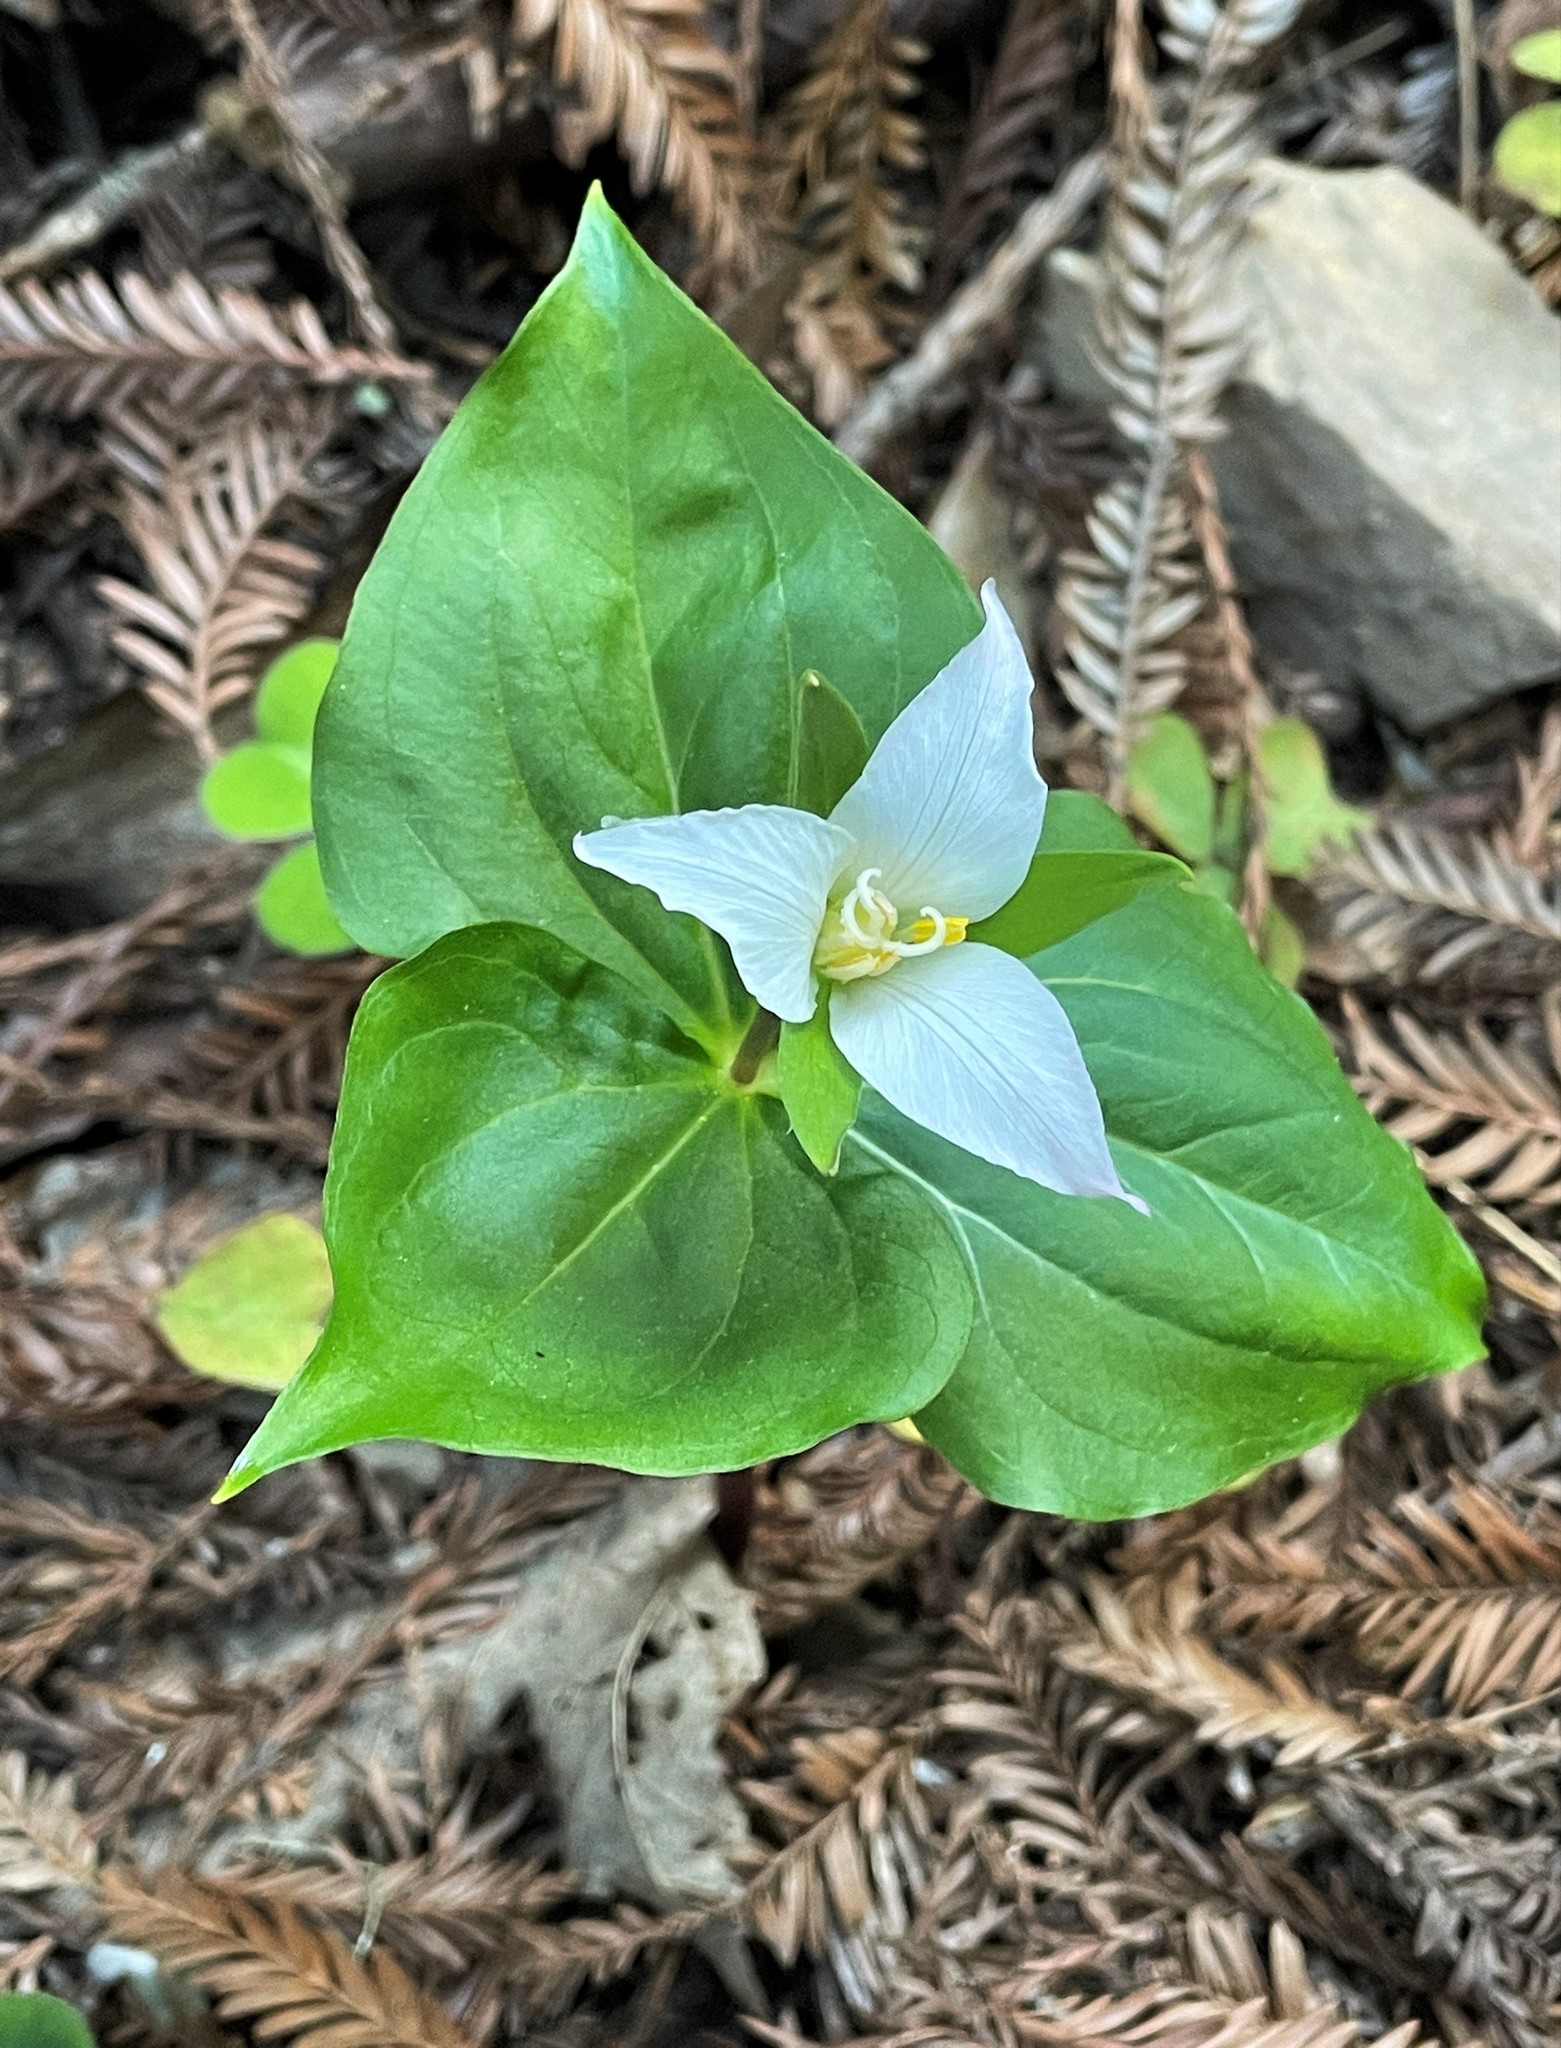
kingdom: Plantae
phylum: Tracheophyta
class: Liliopsida
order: Liliales
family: Melanthiaceae
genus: Trillium
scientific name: Trillium ovatum
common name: Pacific trillium
